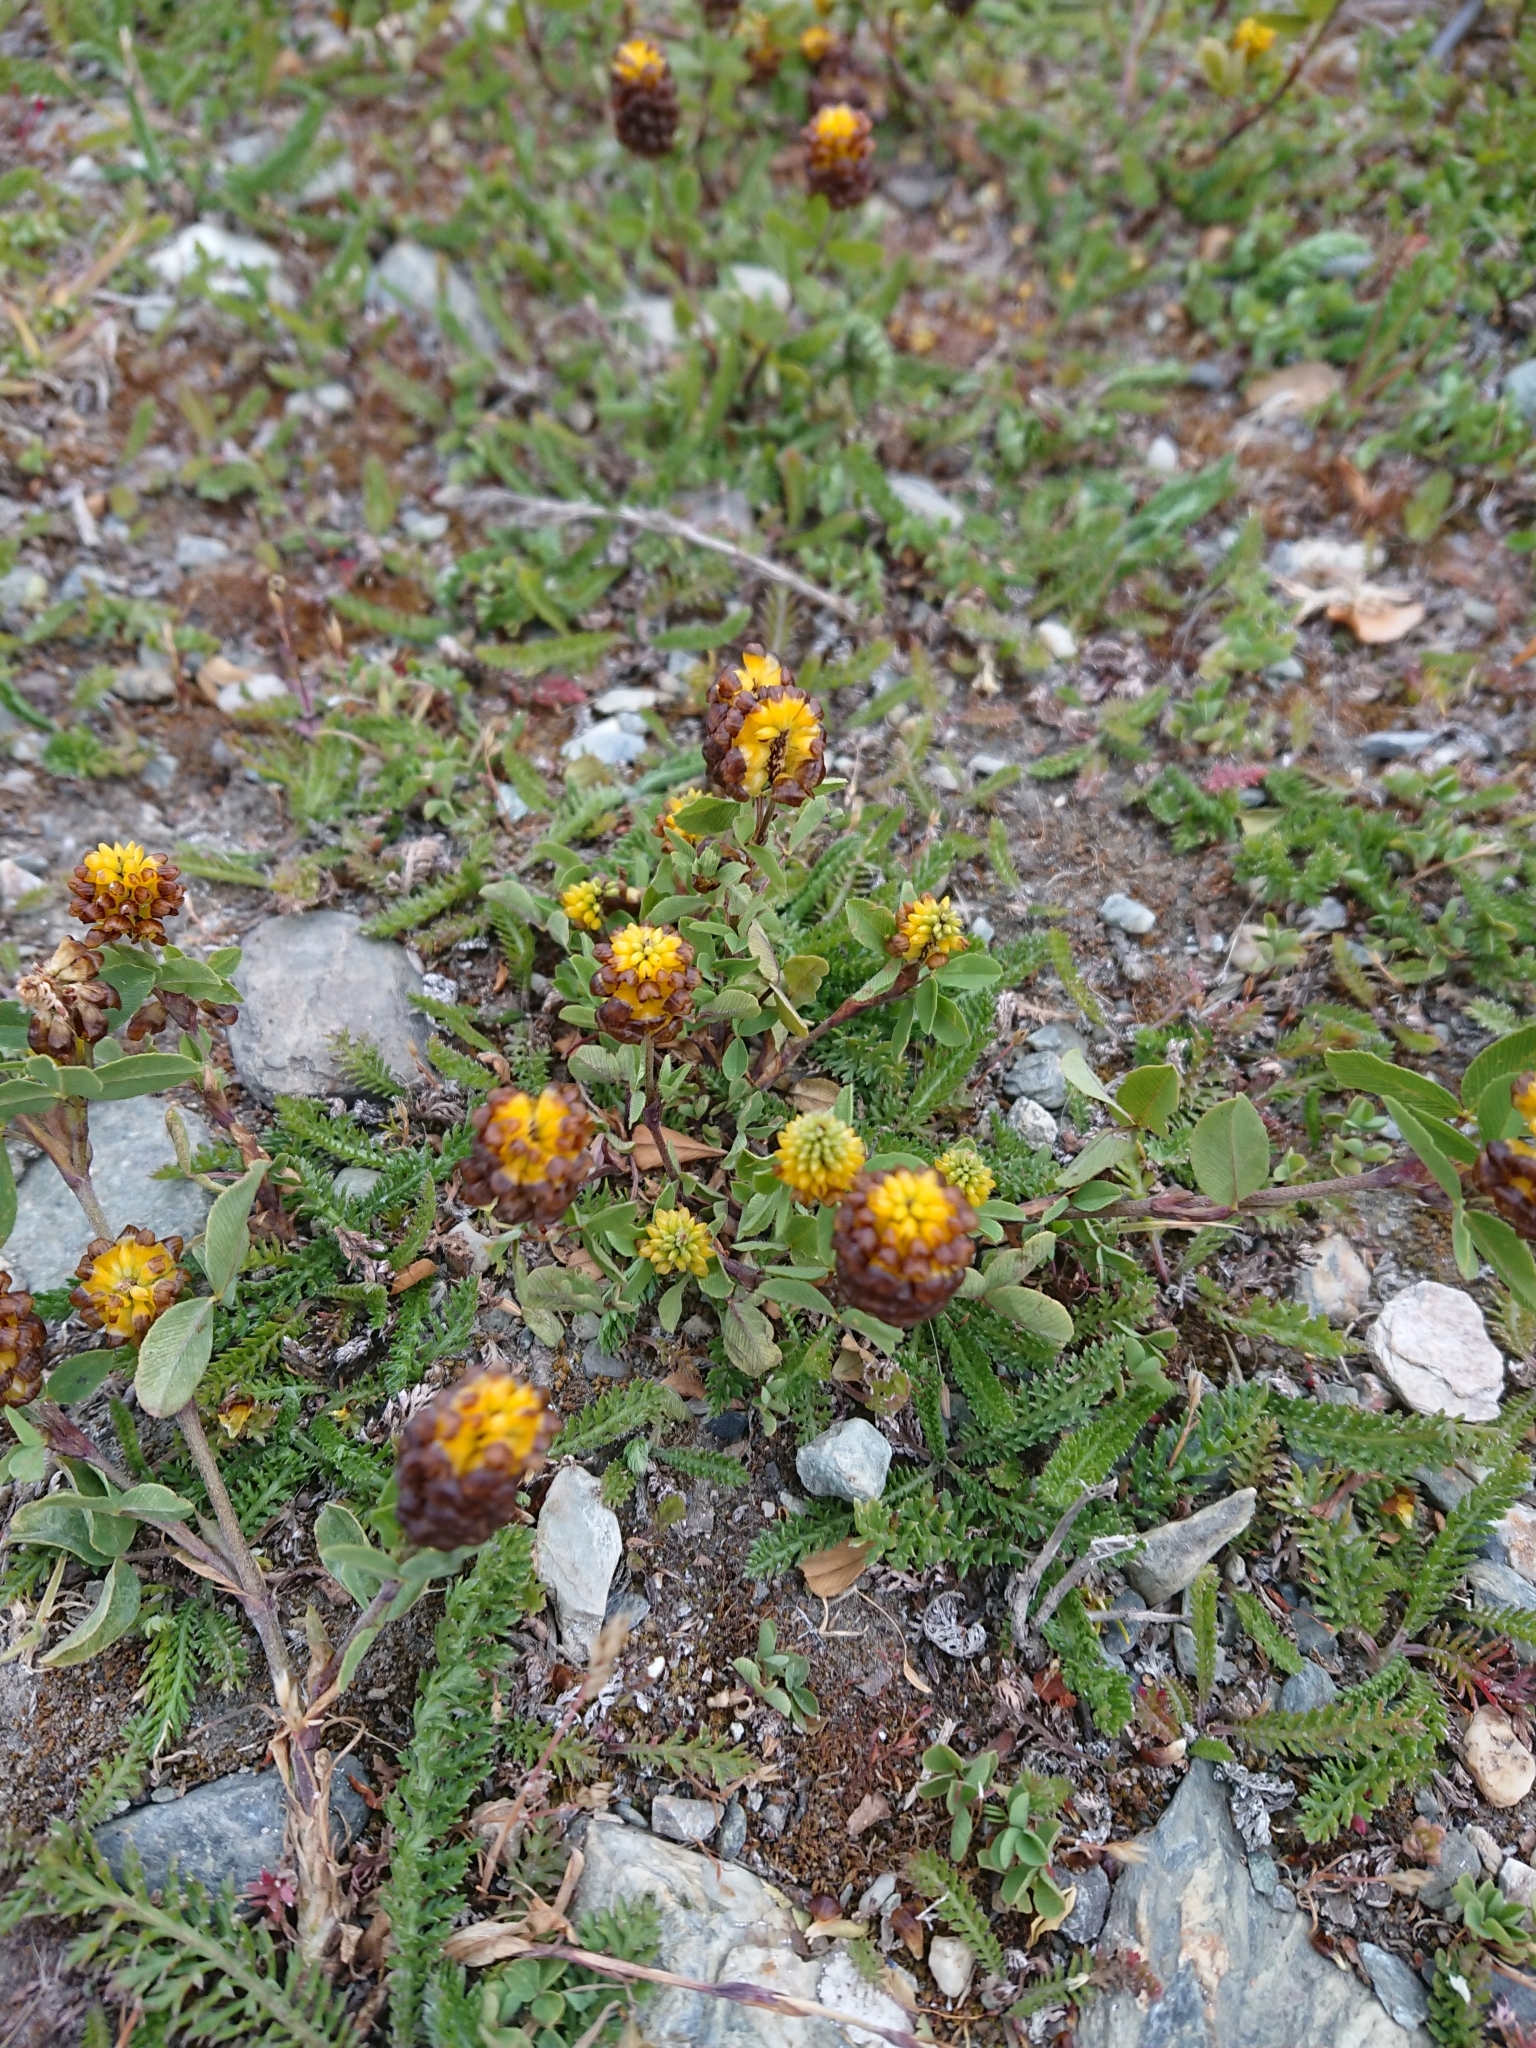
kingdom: Plantae
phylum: Tracheophyta
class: Magnoliopsida
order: Fabales
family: Fabaceae
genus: Trifolium
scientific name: Trifolium spadiceum
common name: Brown moor clover
